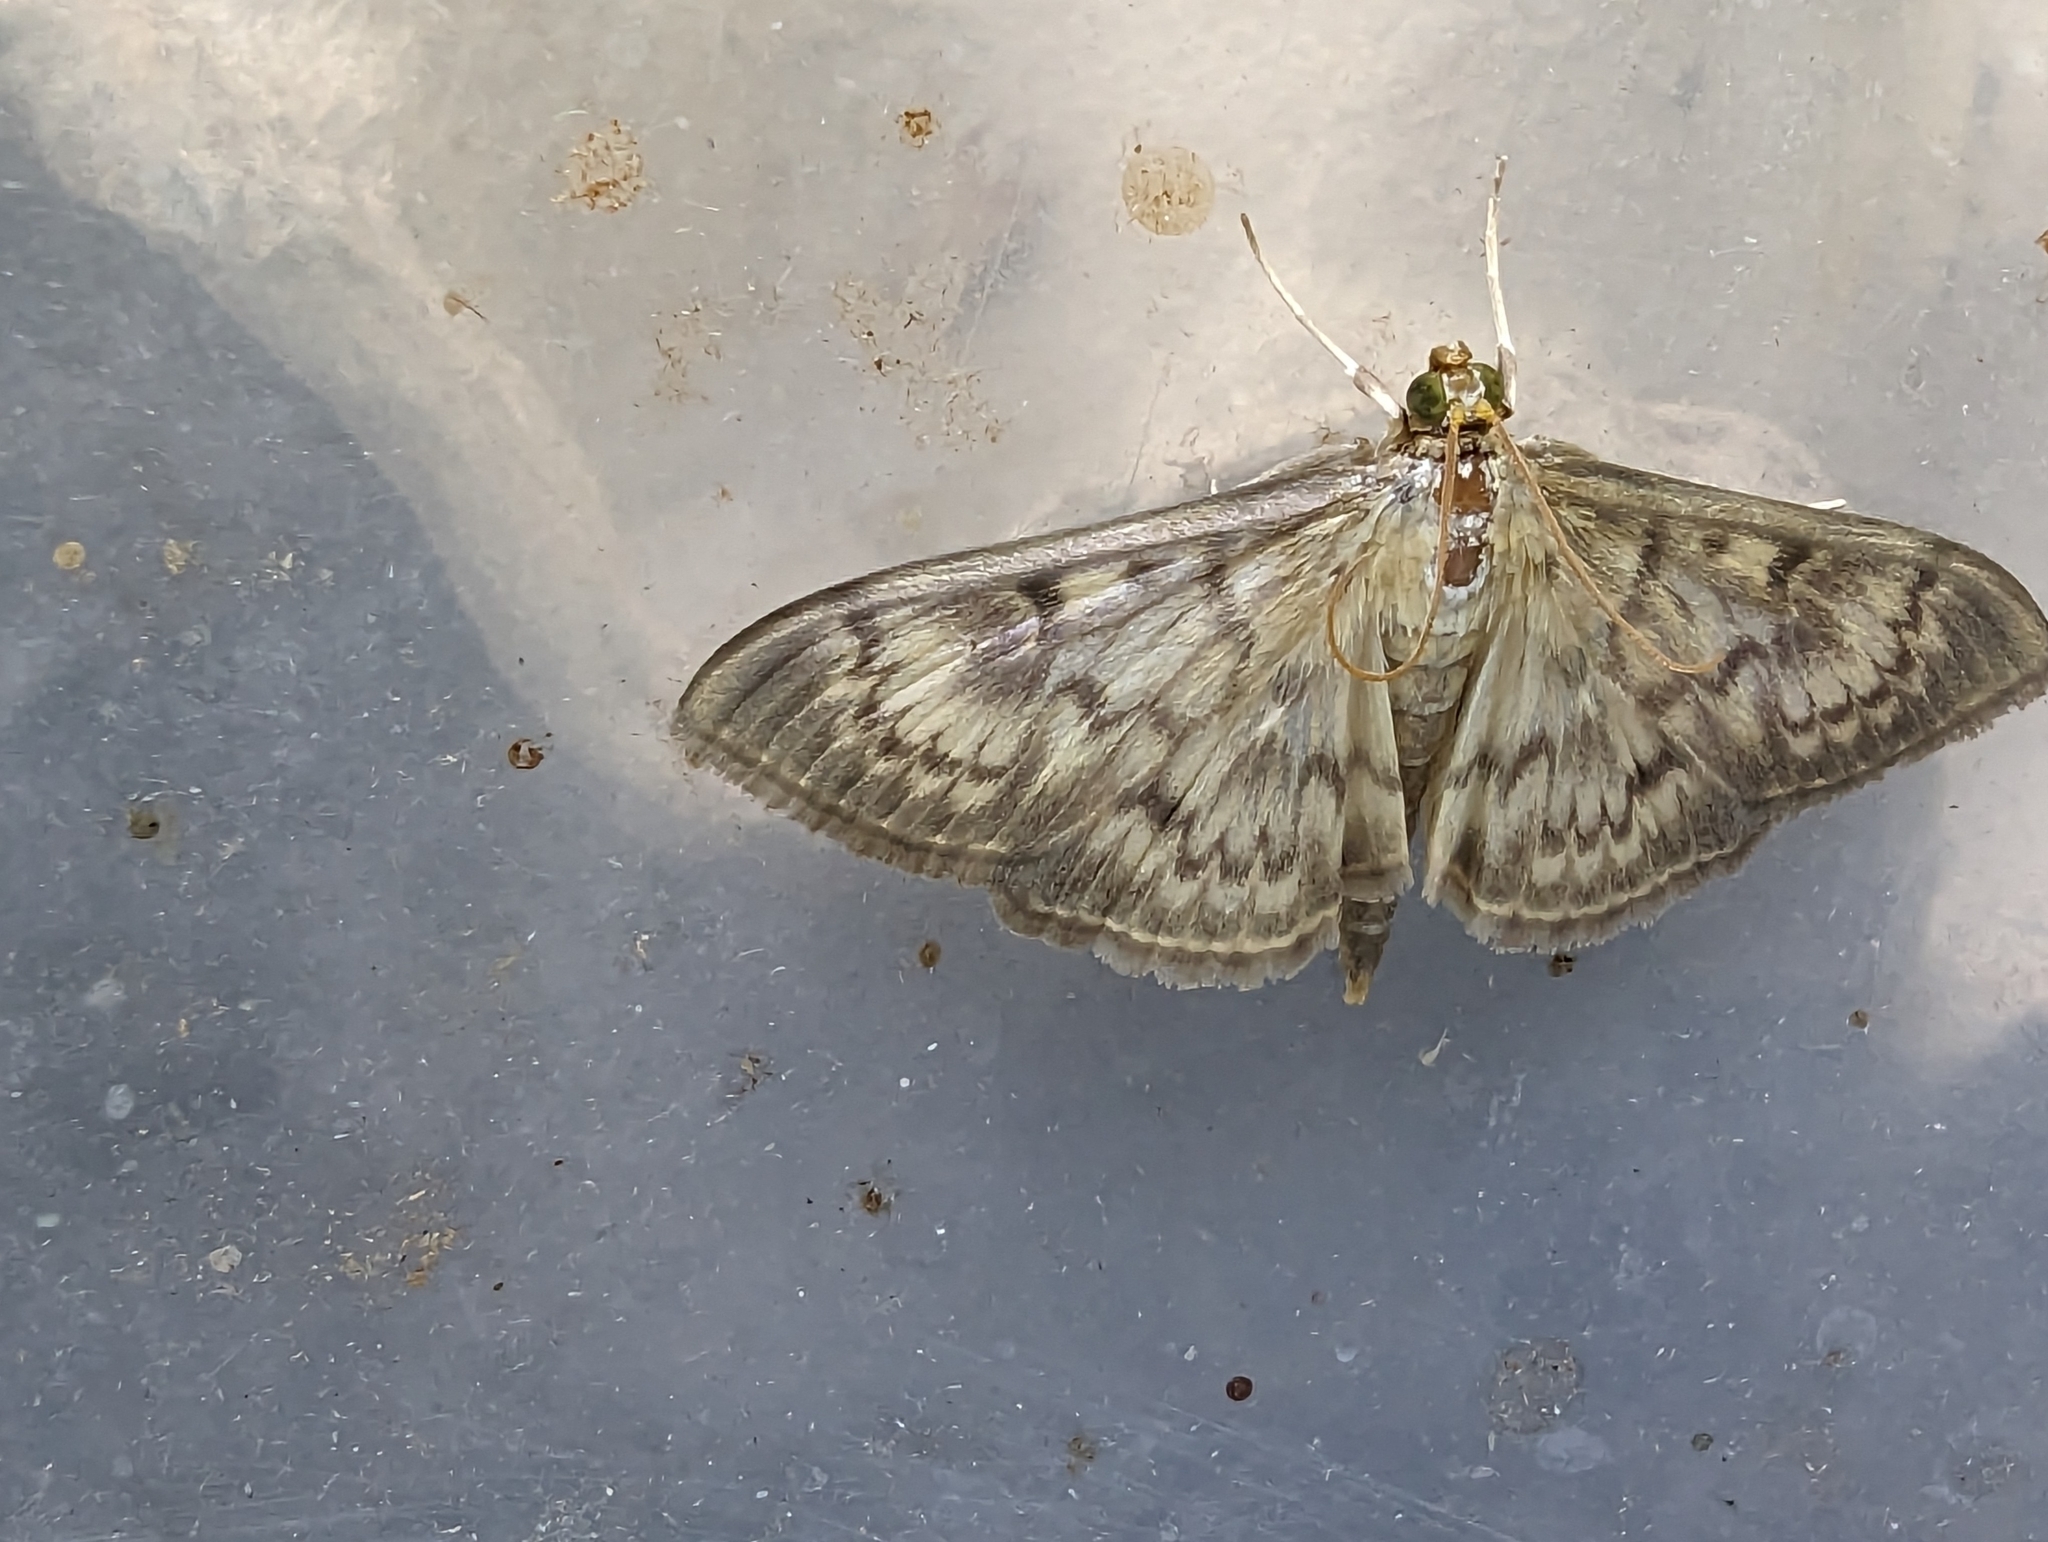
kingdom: Animalia
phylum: Arthropoda
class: Insecta
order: Lepidoptera
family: Crambidae
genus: Patania
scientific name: Patania ruralis
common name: Mother of pearl
